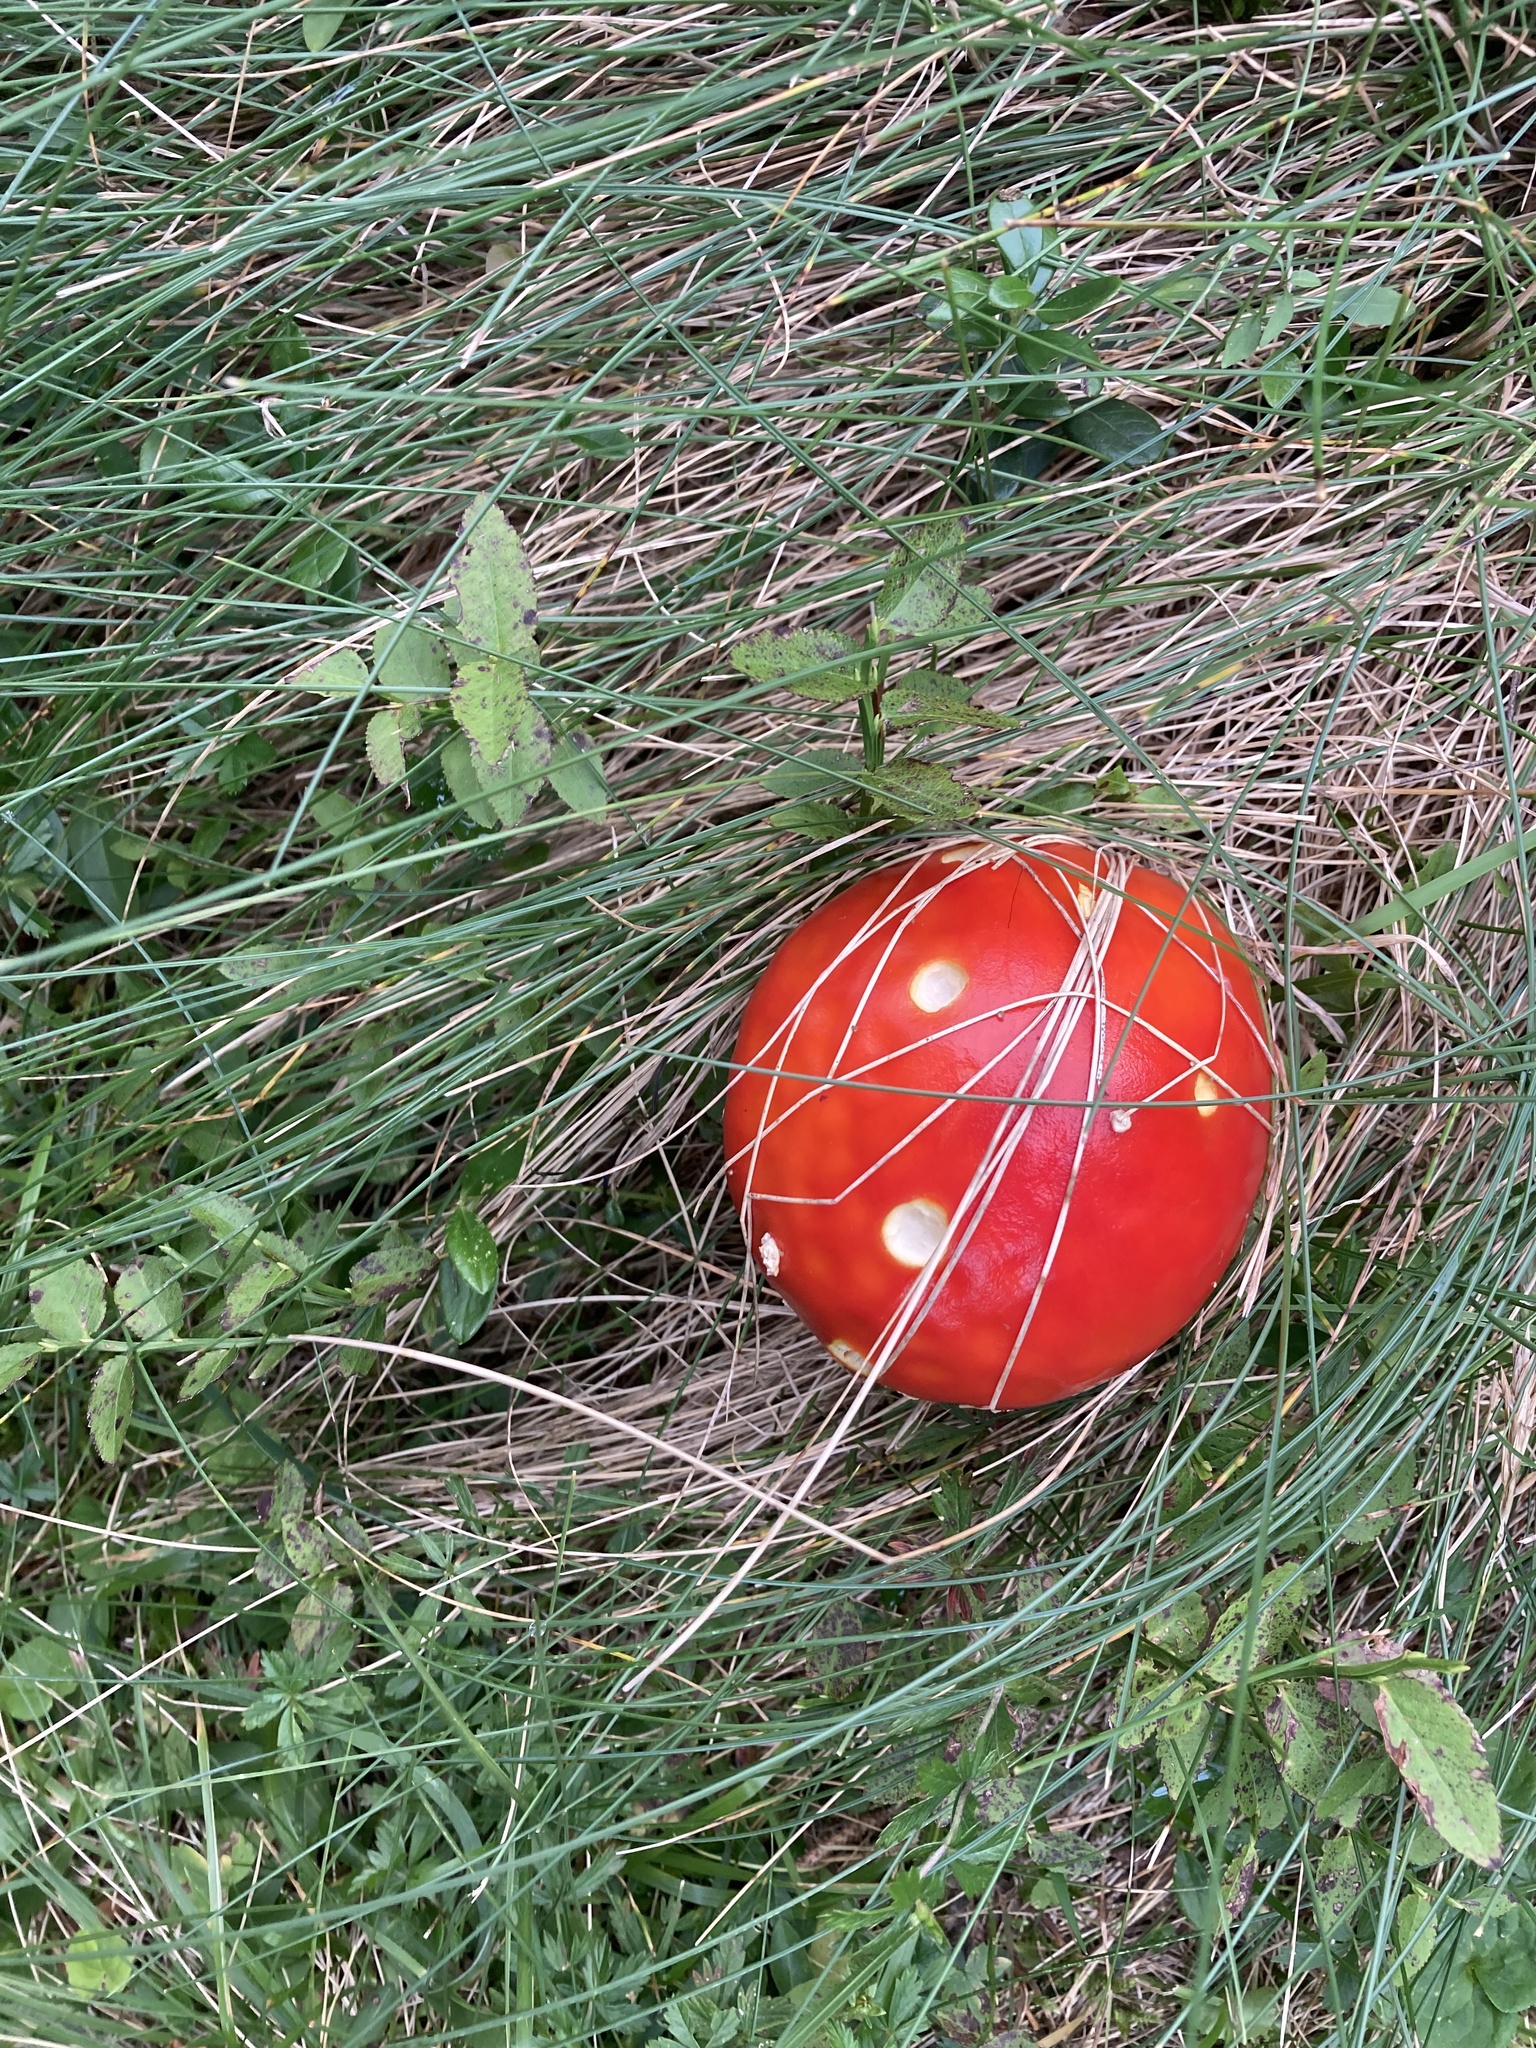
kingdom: Fungi
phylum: Basidiomycota
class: Agaricomycetes
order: Agaricales
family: Amanitaceae
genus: Amanita
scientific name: Amanita muscaria
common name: Fly agaric
